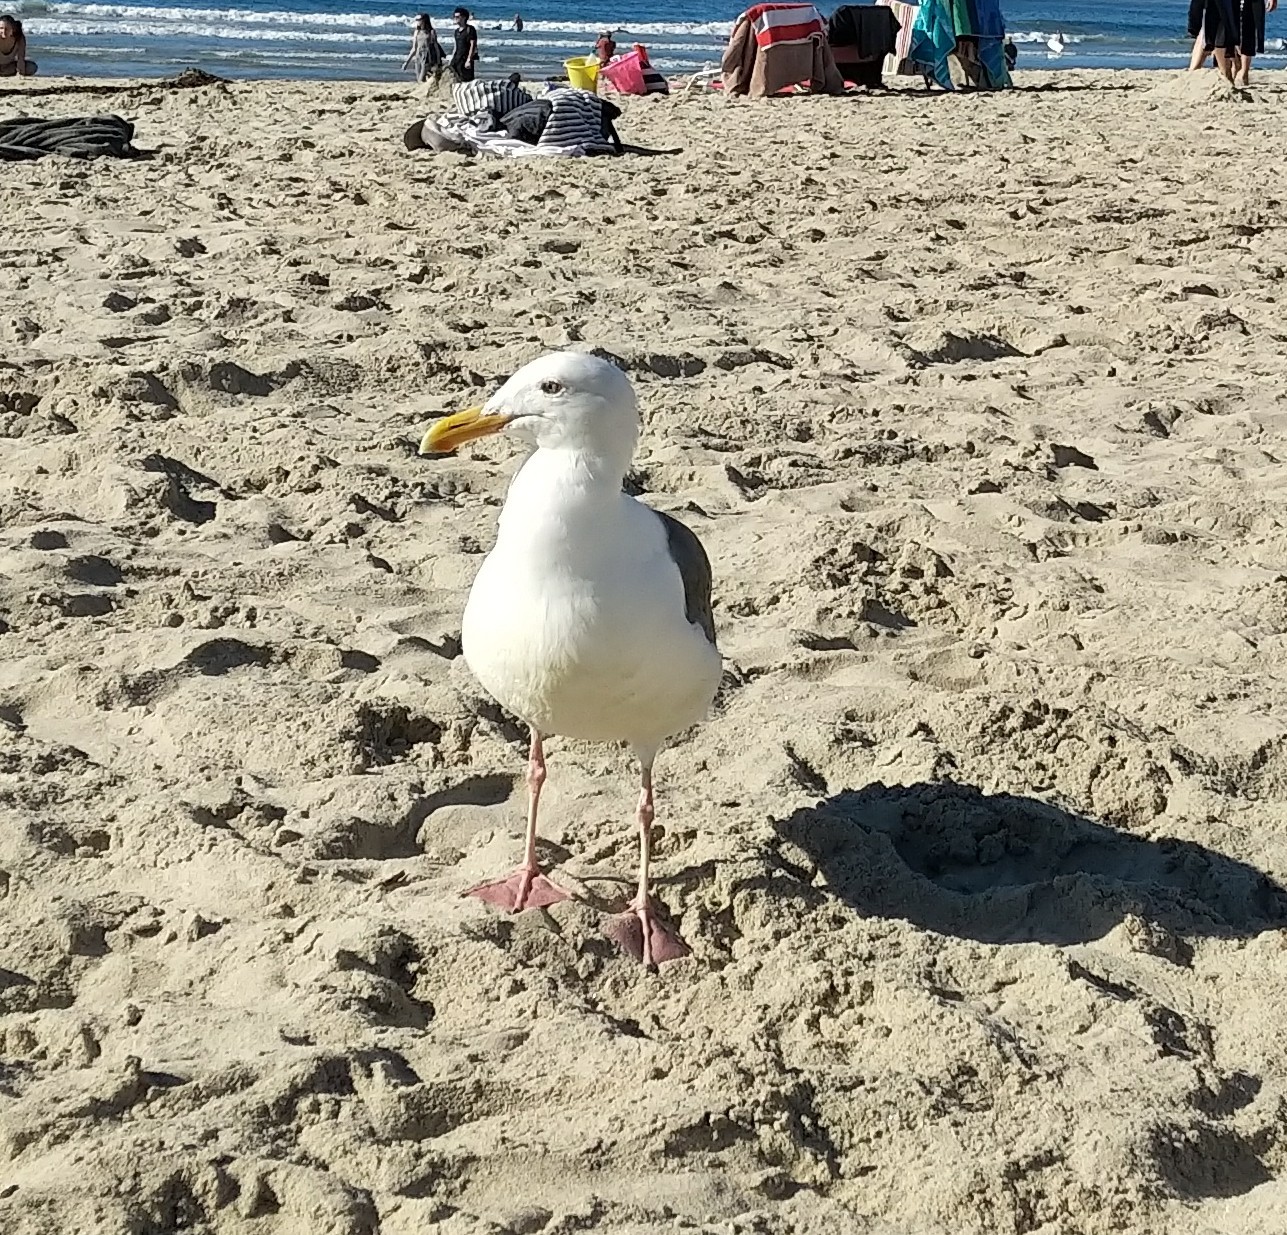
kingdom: Animalia
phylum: Chordata
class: Aves
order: Charadriiformes
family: Laridae
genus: Larus
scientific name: Larus occidentalis
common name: Western gull
